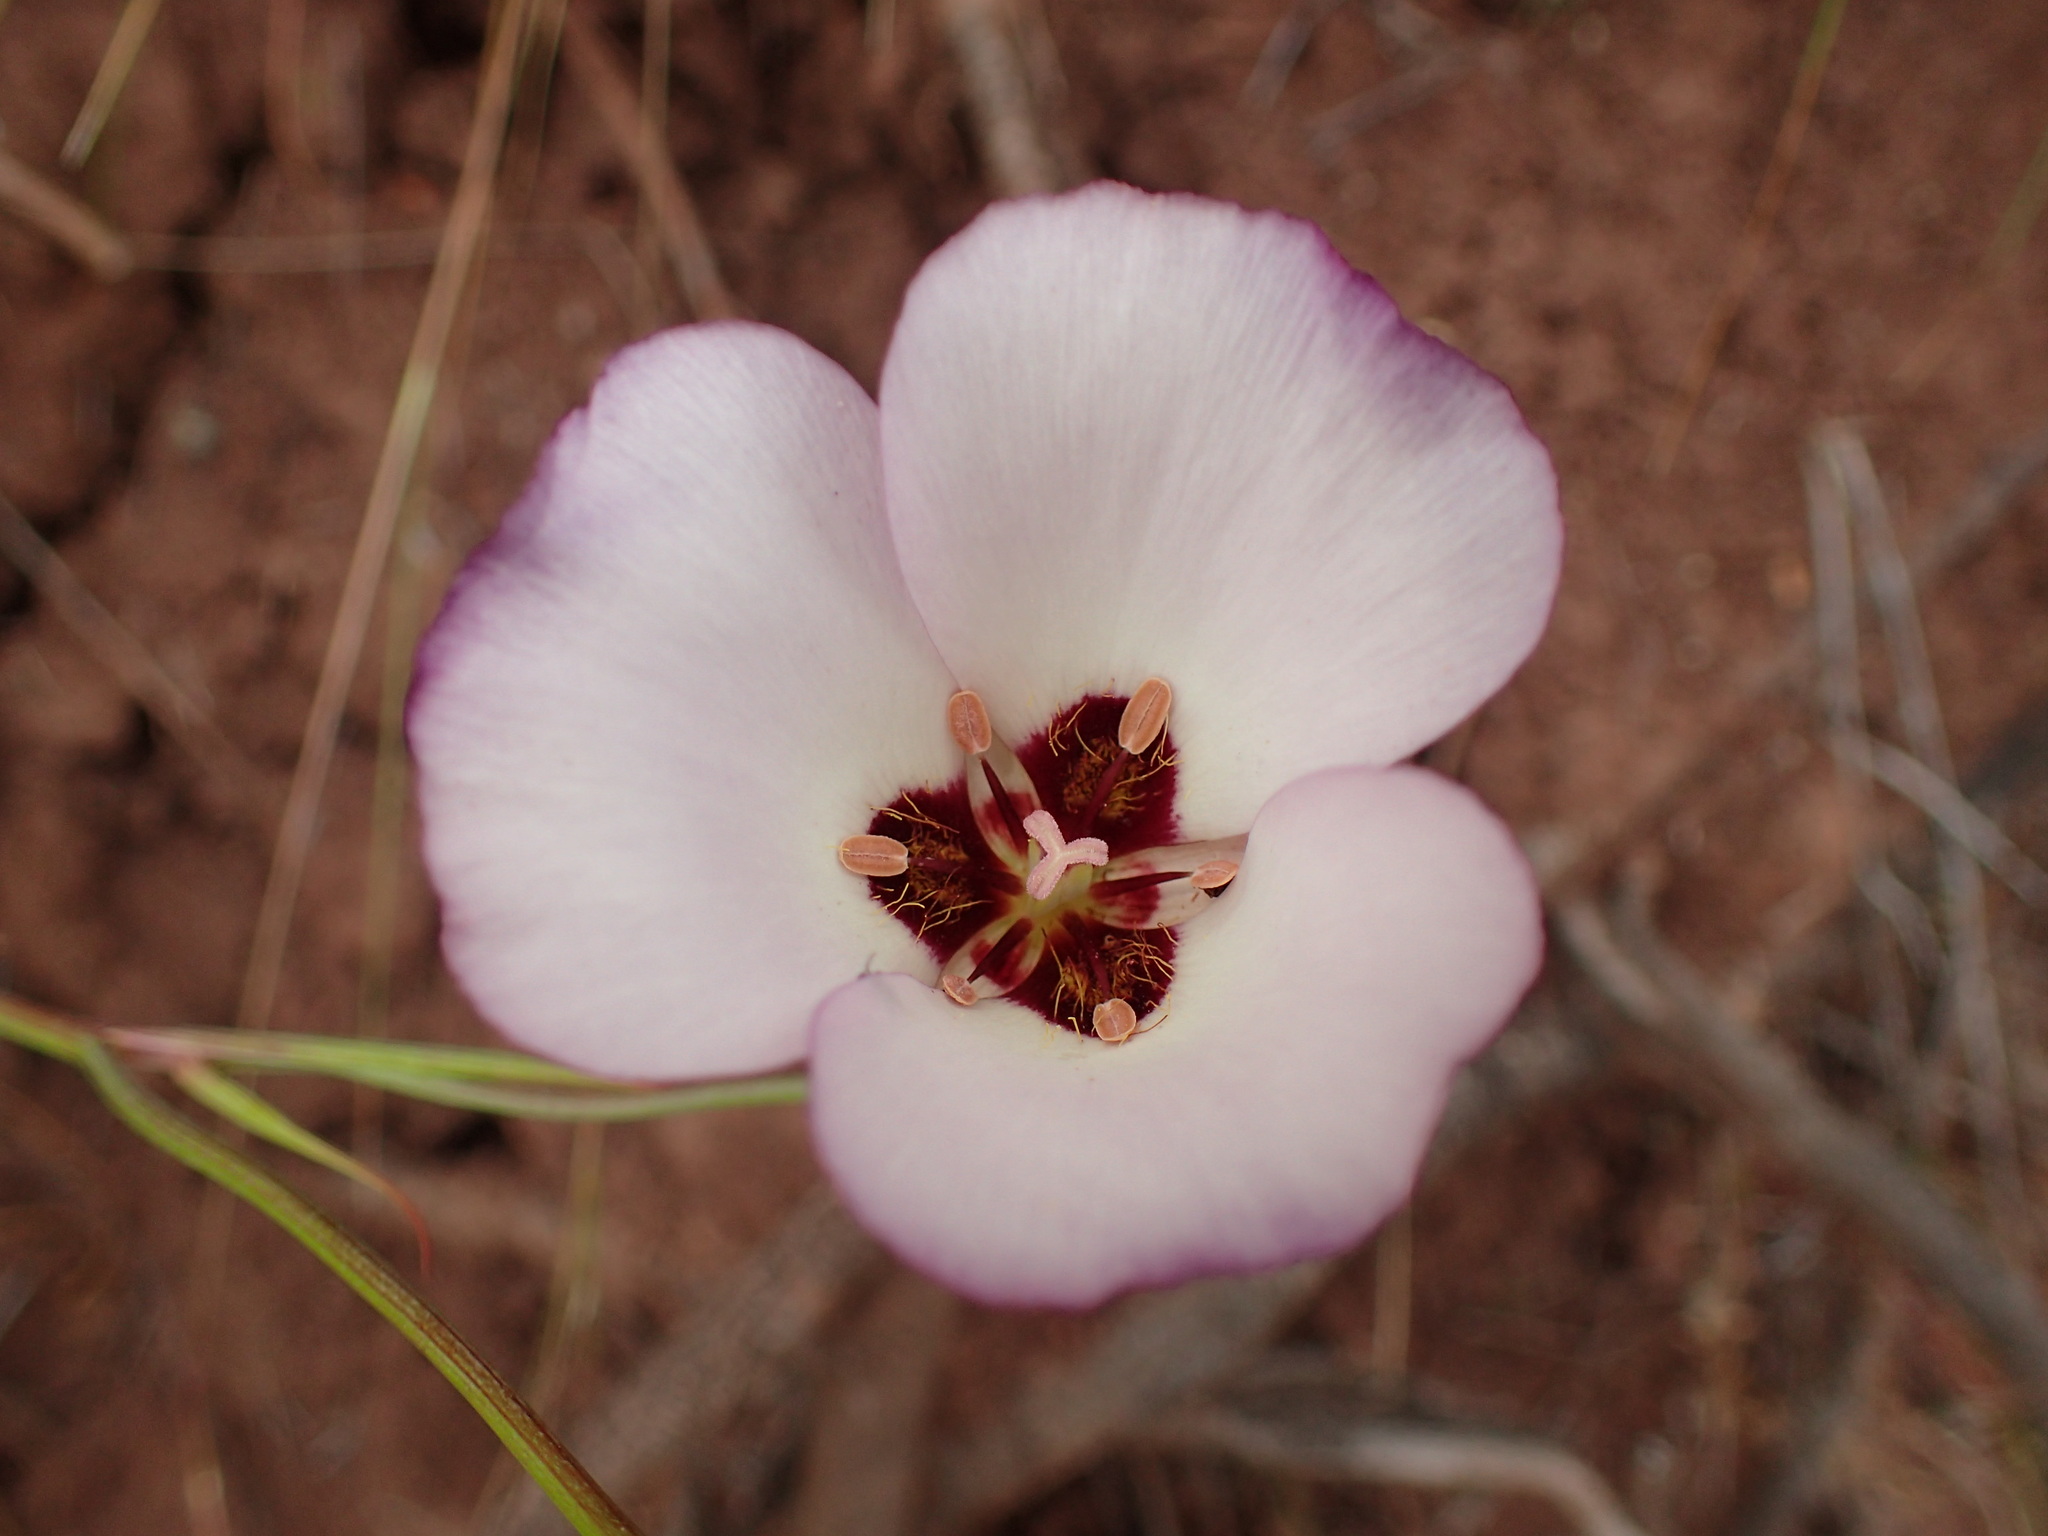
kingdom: Plantae
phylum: Tracheophyta
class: Liliopsida
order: Liliales
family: Liliaceae
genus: Calochortus
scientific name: Calochortus catalinae
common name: Catalina mariposa-lily
